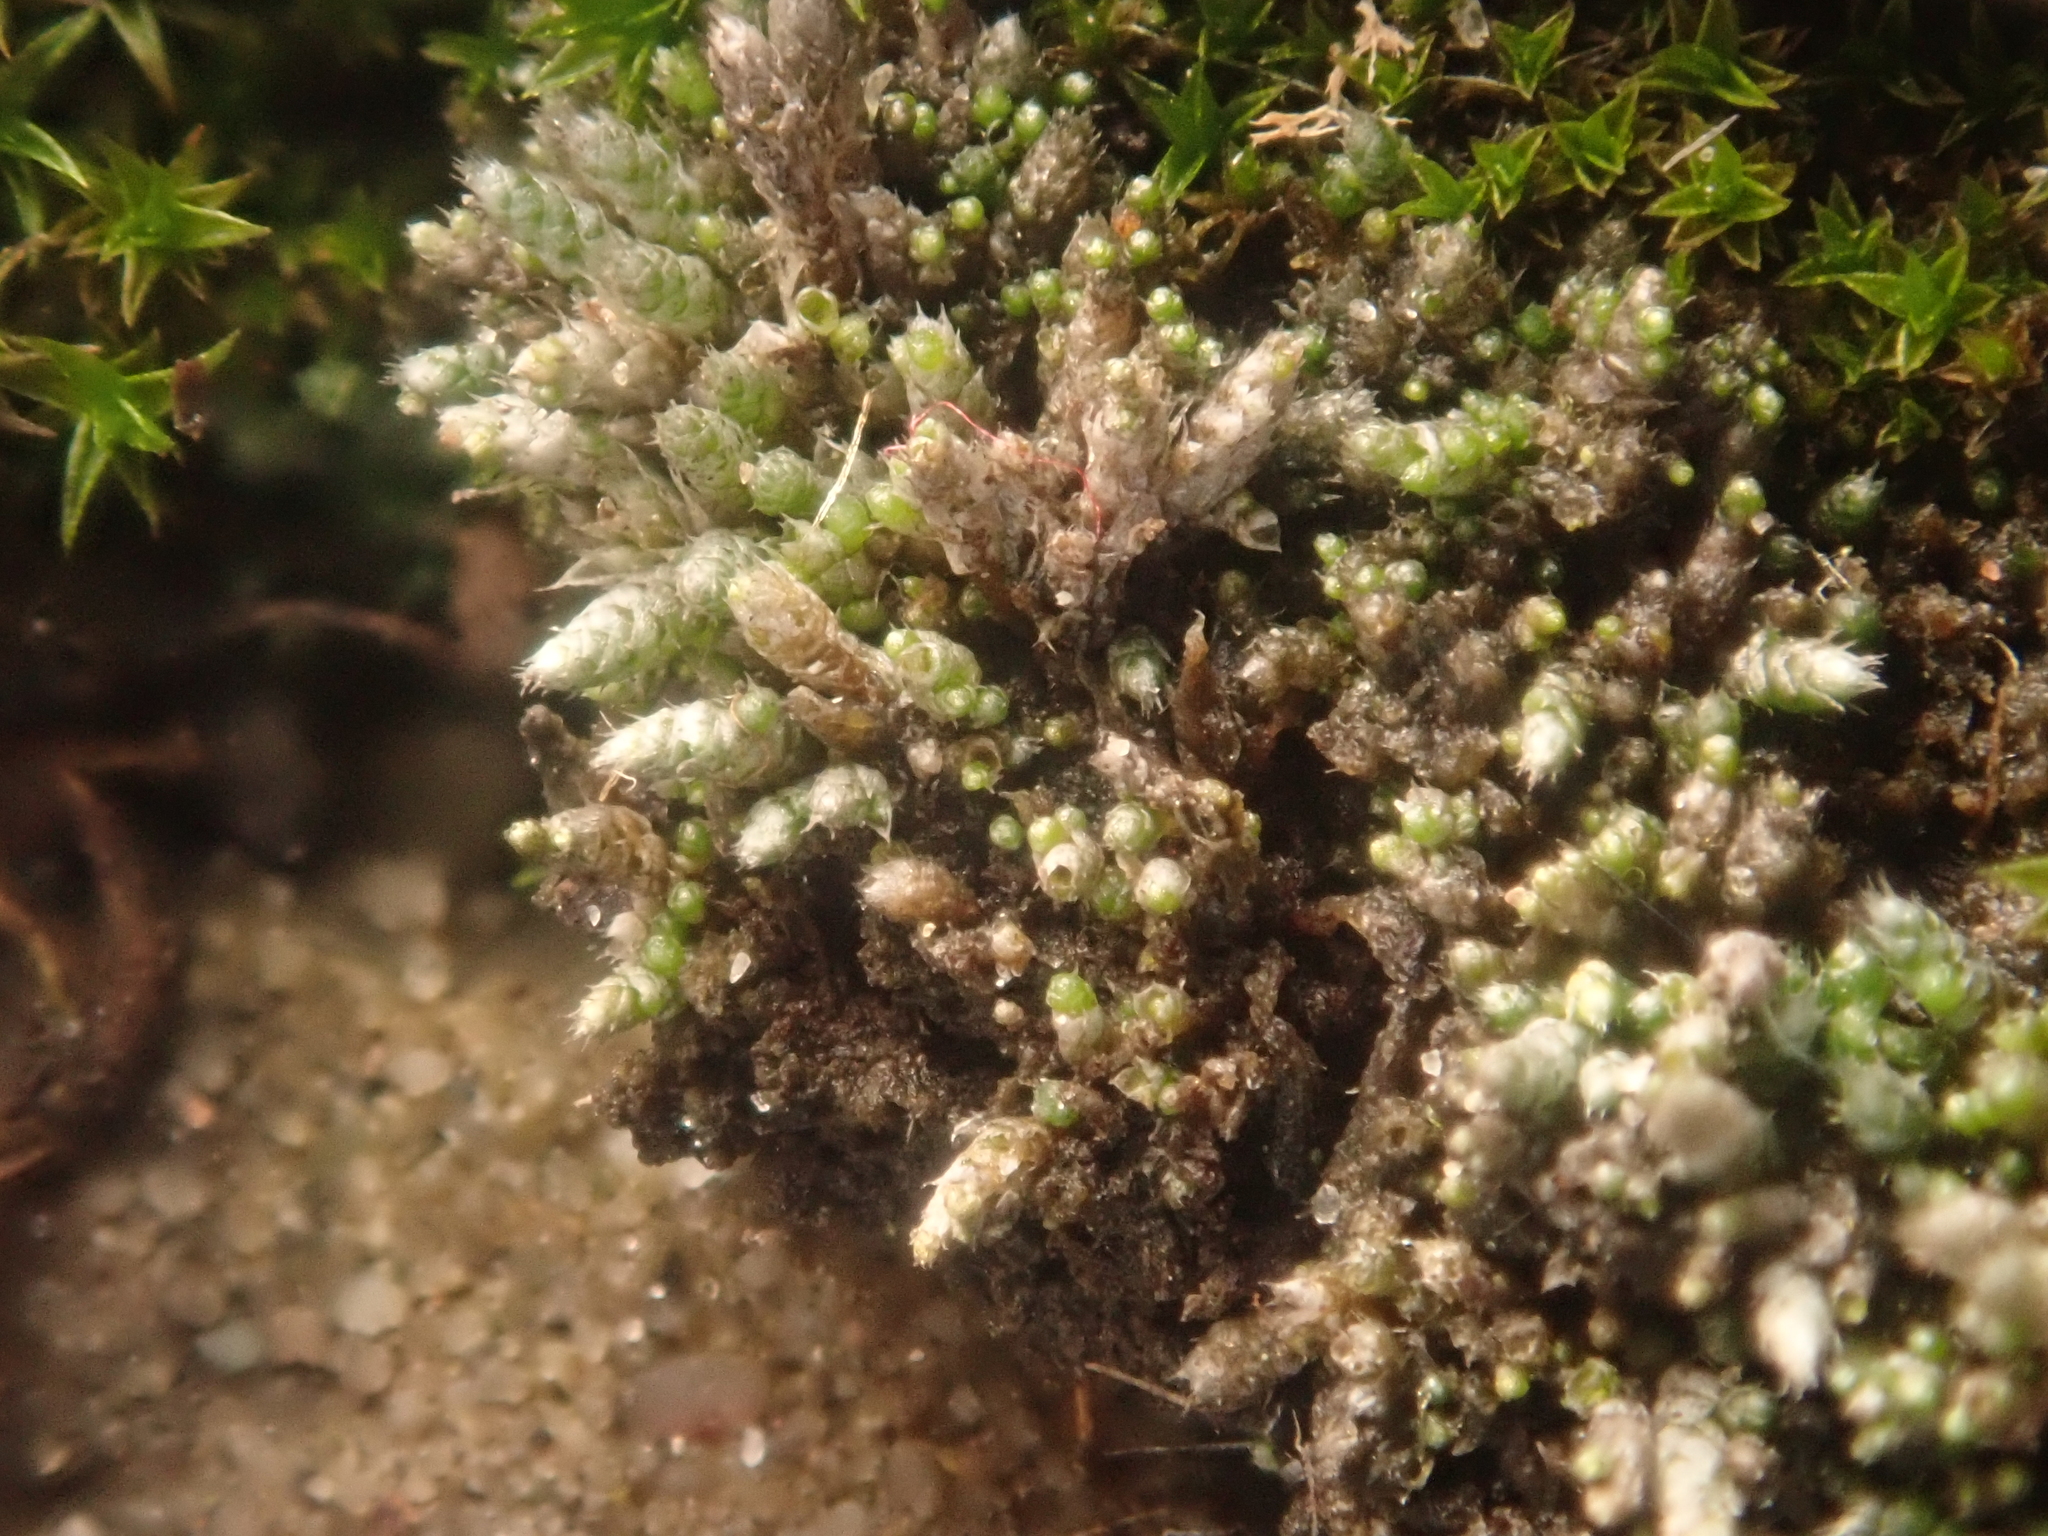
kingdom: Plantae
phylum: Bryophyta
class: Bryopsida
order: Bryales
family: Bryaceae
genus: Bryum
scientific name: Bryum argenteum
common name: Silver-moss
